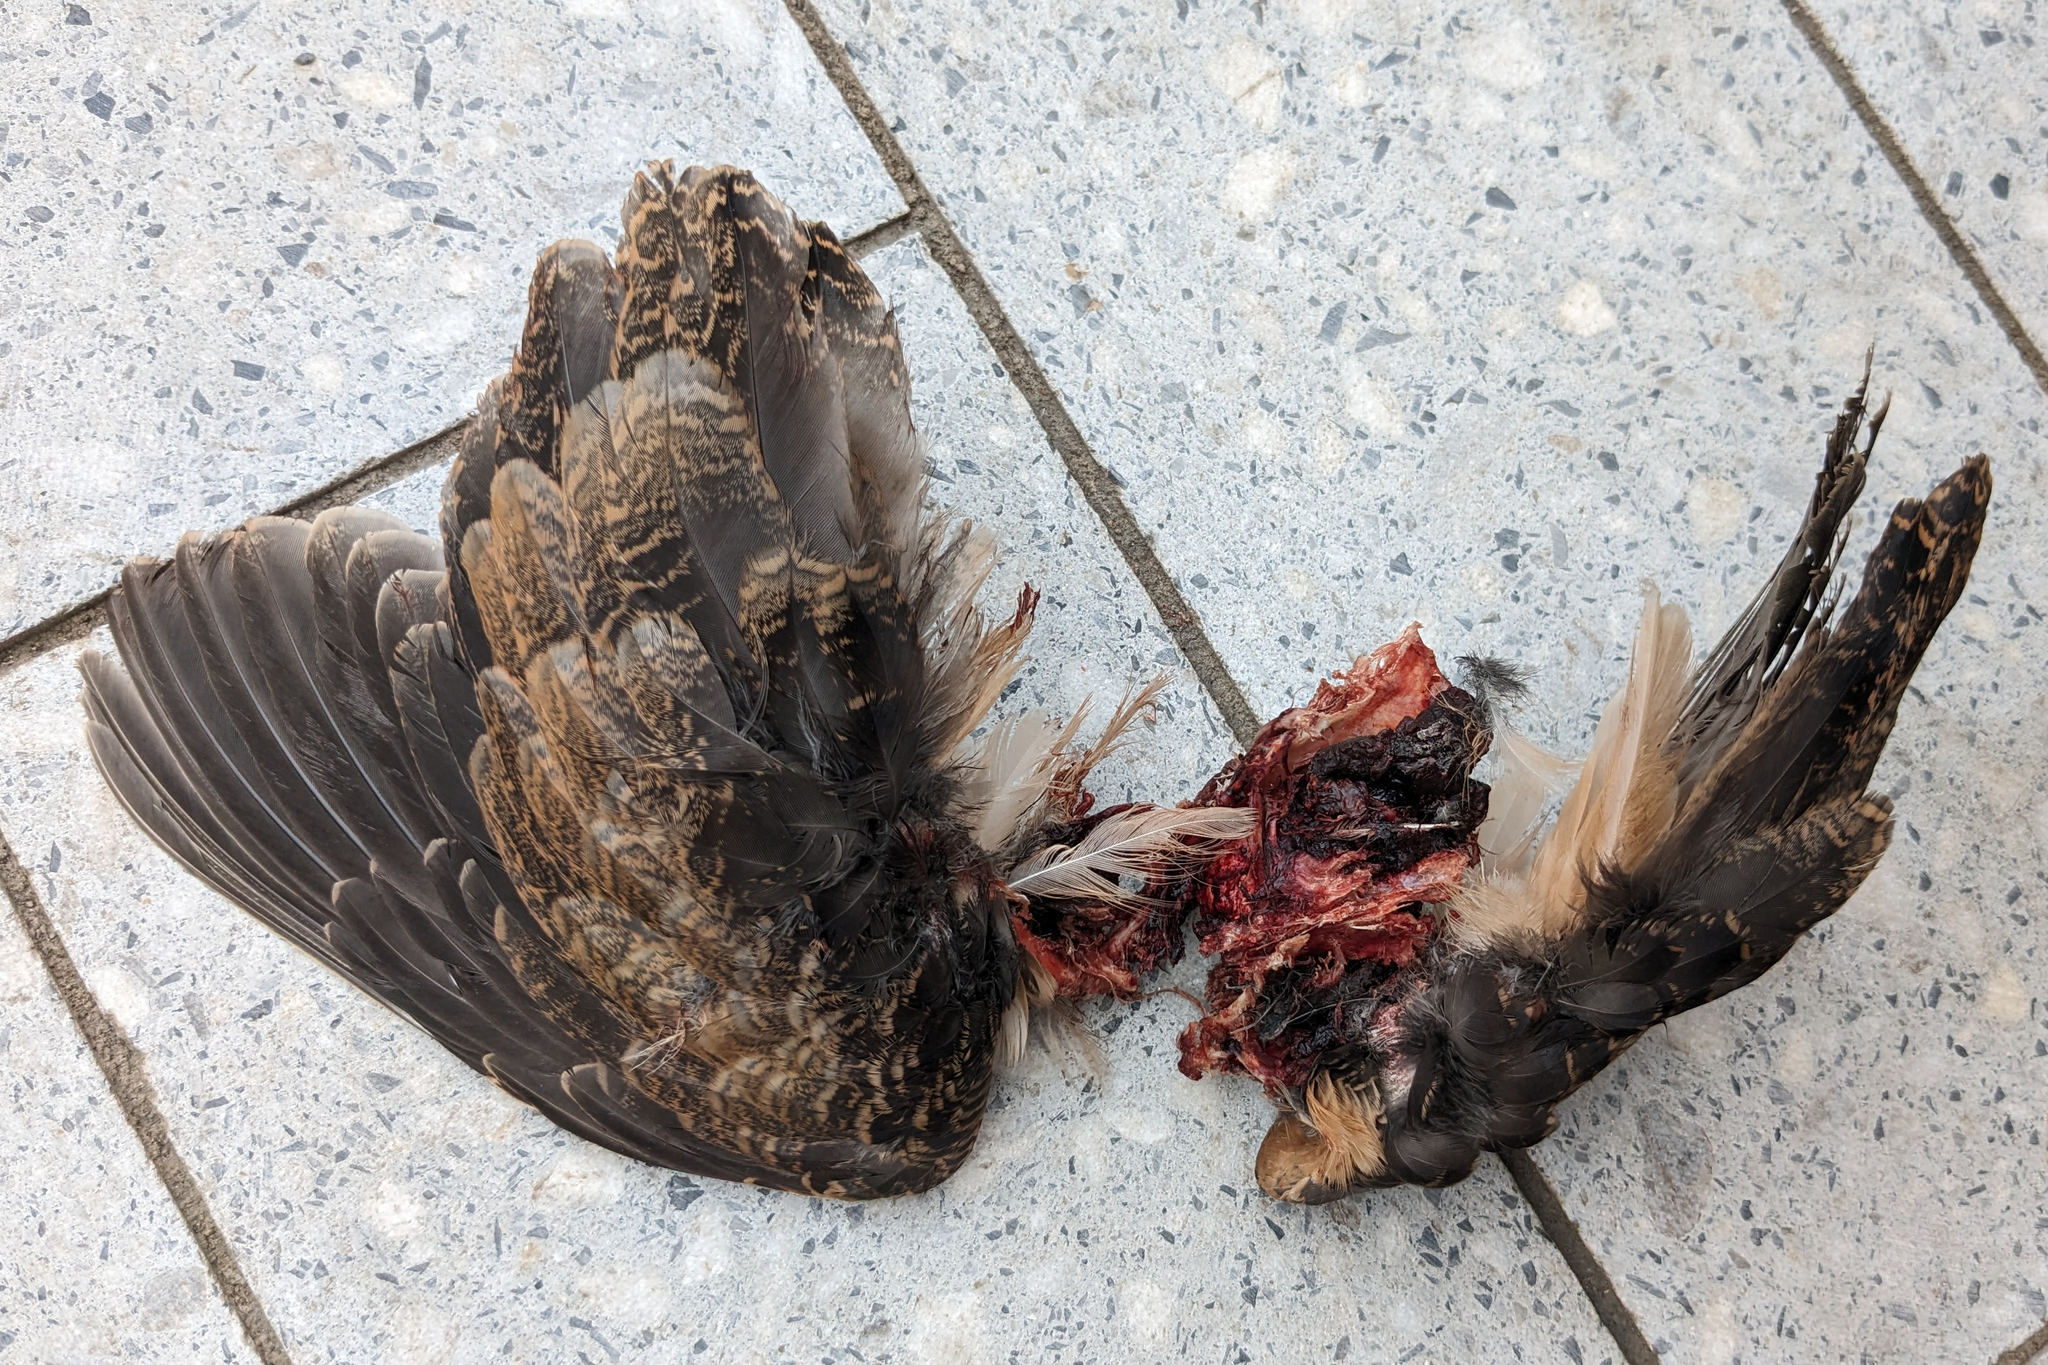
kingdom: Animalia
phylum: Chordata
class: Aves
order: Charadriiformes
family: Scolopacidae
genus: Scolopax
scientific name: Scolopax minor
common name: American woodcock
